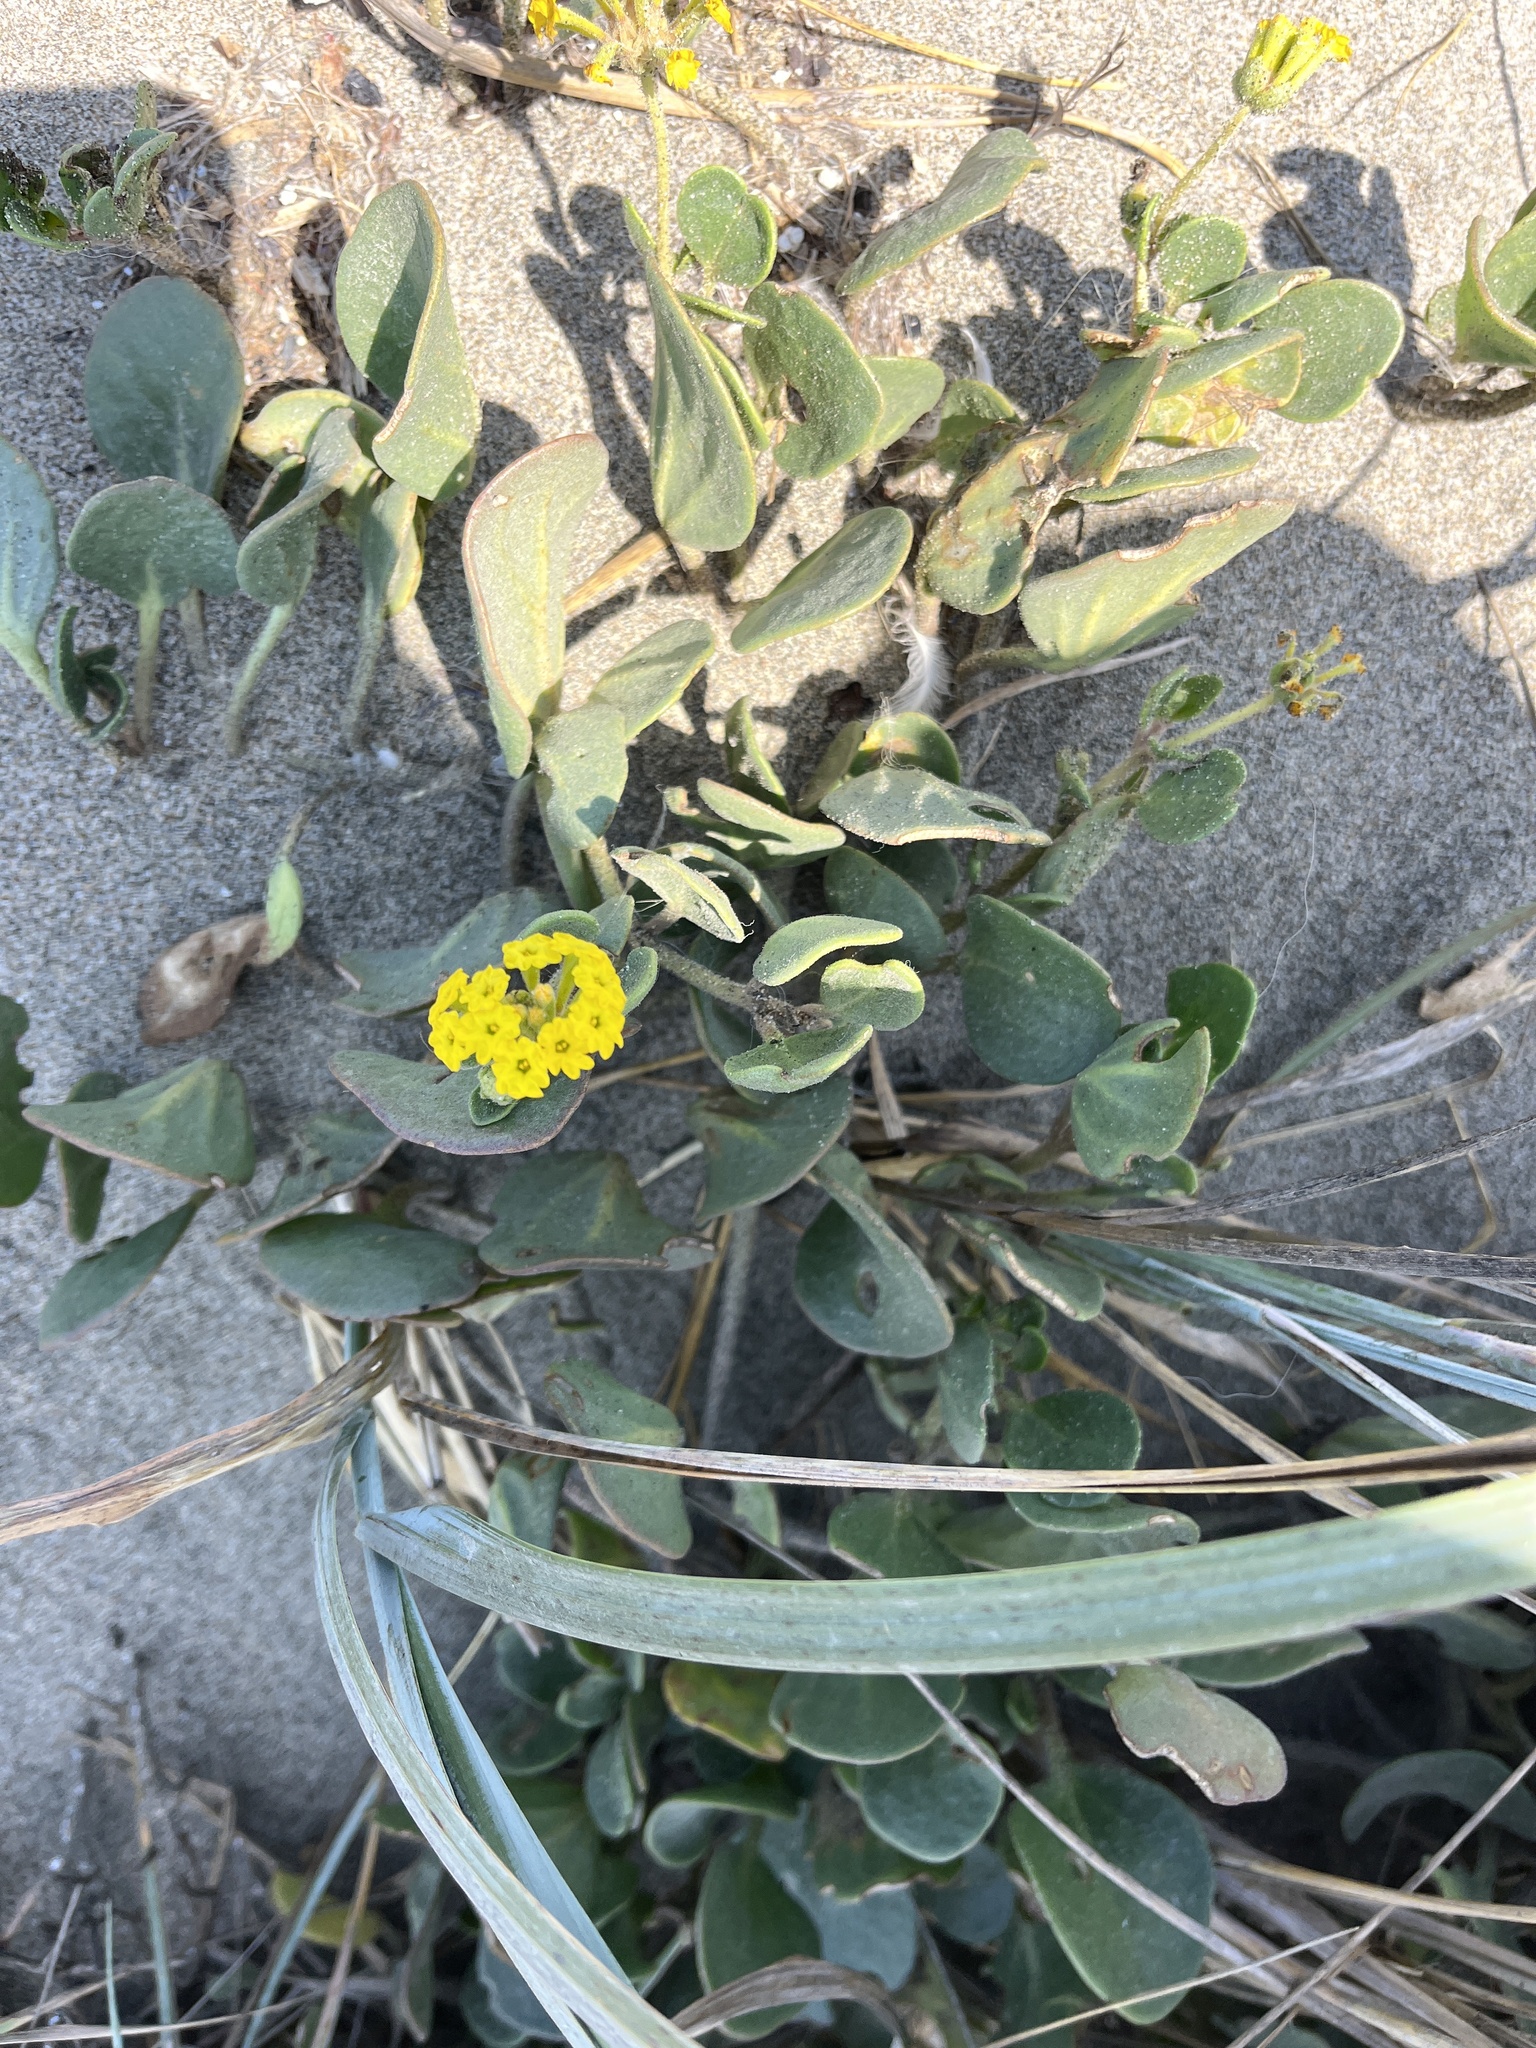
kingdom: Plantae
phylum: Tracheophyta
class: Magnoliopsida
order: Caryophyllales
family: Nyctaginaceae
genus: Abronia
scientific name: Abronia latifolia
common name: Yellow sand-verbena
